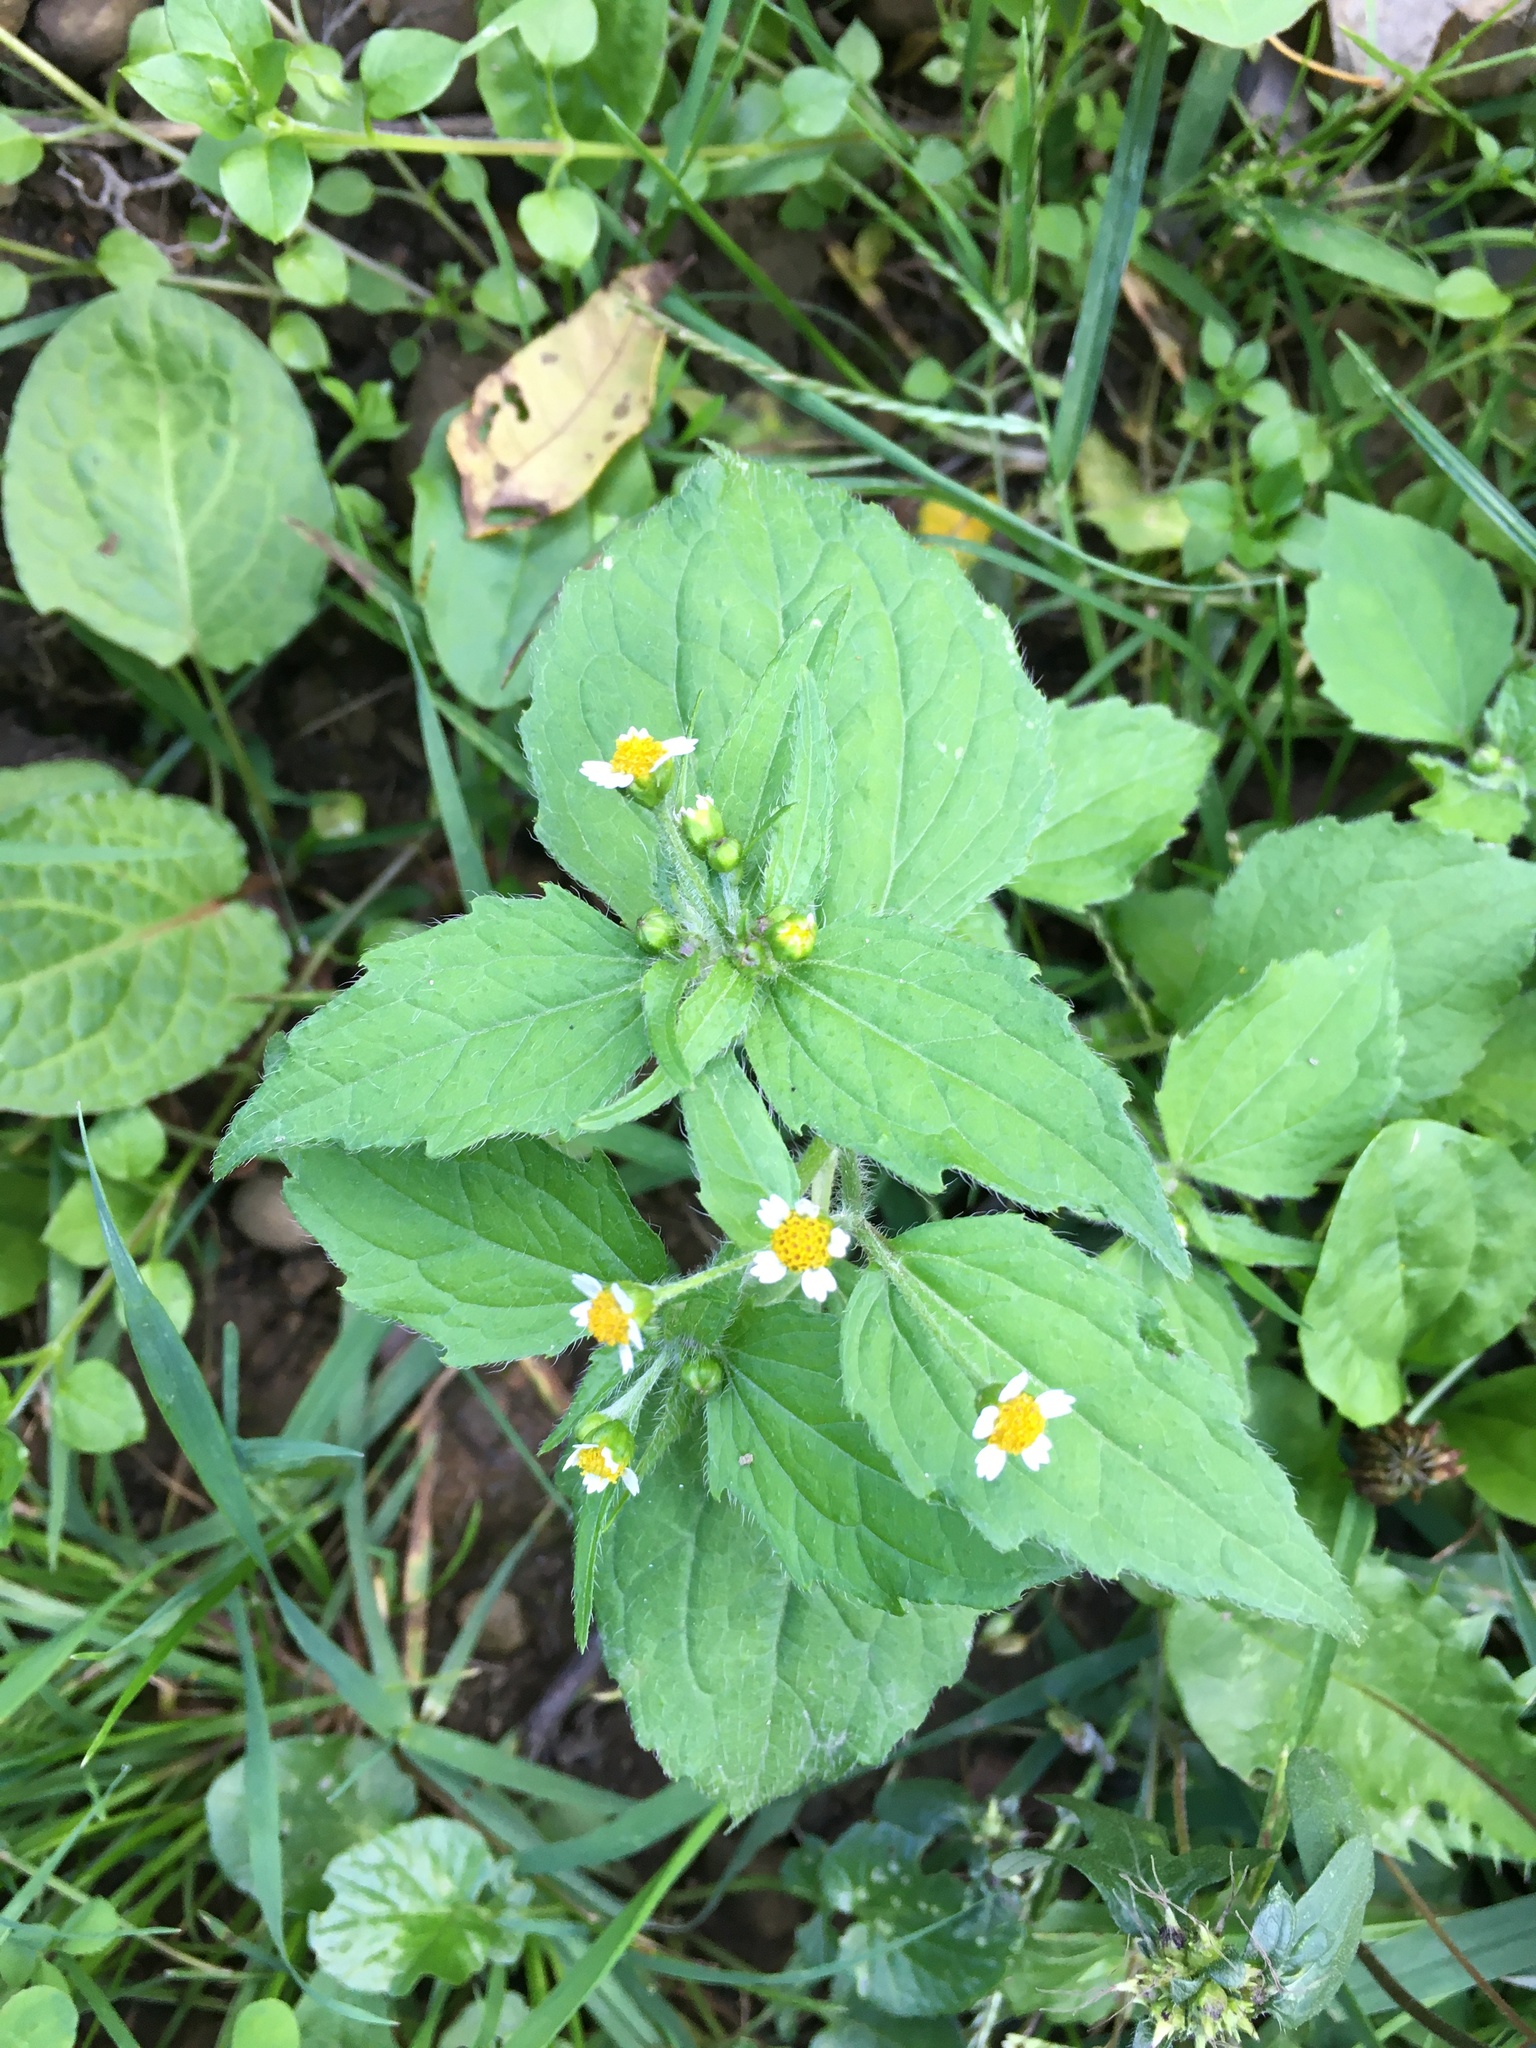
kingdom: Plantae
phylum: Tracheophyta
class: Magnoliopsida
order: Asterales
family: Asteraceae
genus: Galinsoga
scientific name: Galinsoga quadriradiata
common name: Shaggy soldier
